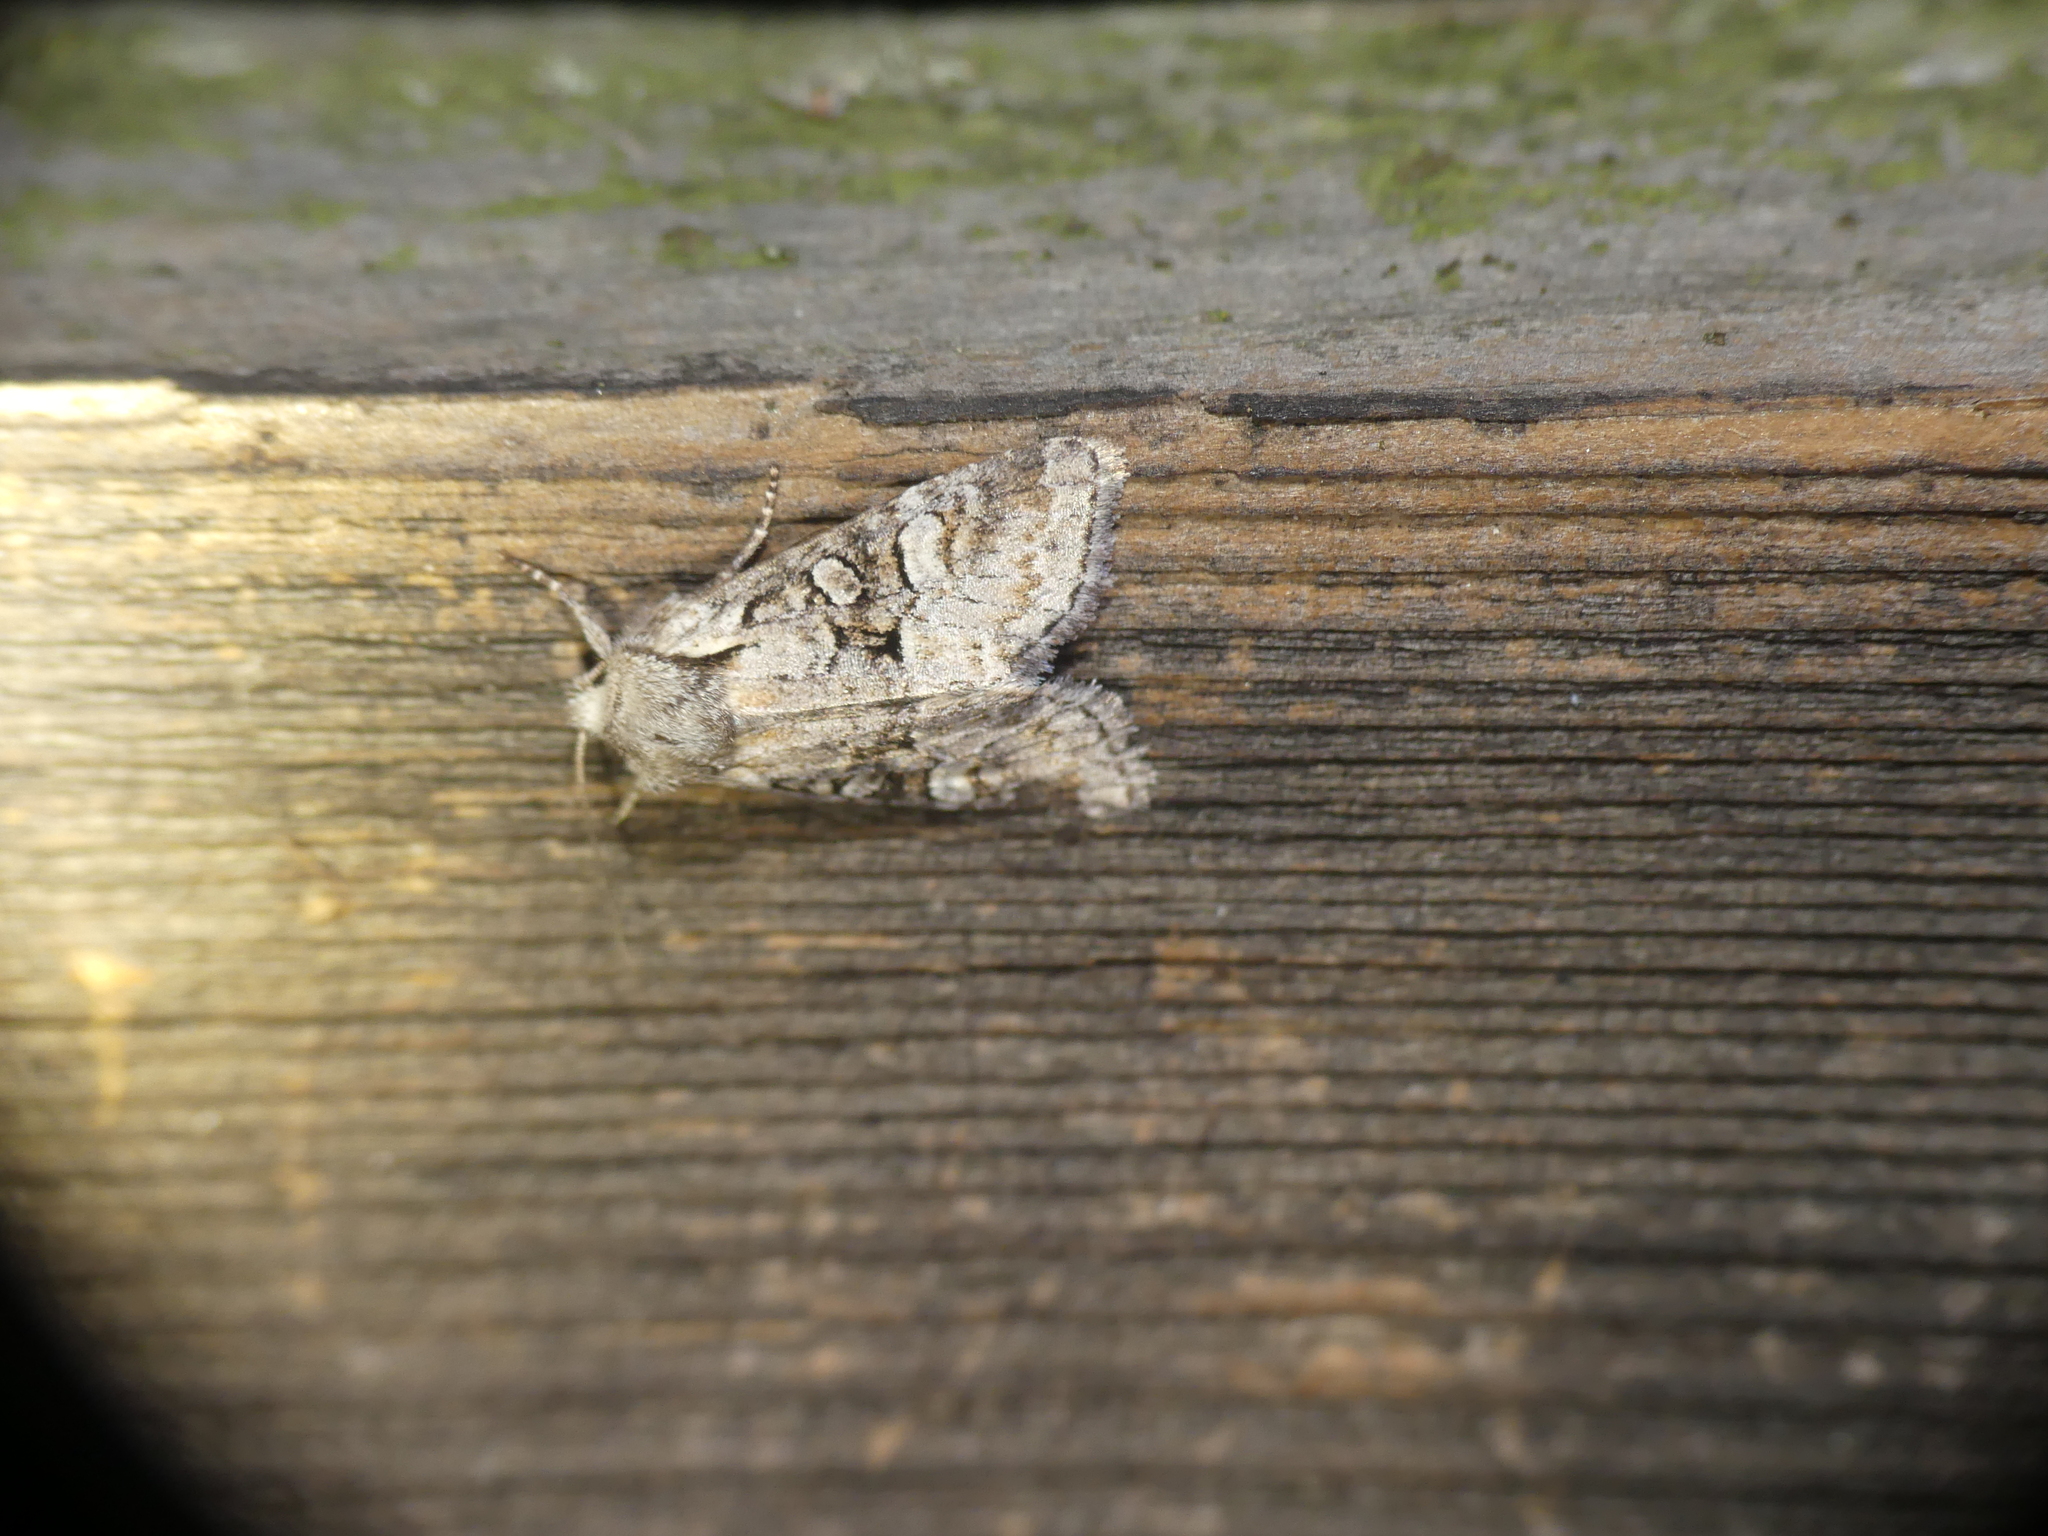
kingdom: Animalia
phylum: Arthropoda
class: Insecta
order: Lepidoptera
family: Noctuidae
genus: Brachylomia
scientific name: Brachylomia viminalis
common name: Minor shoulder-knot
